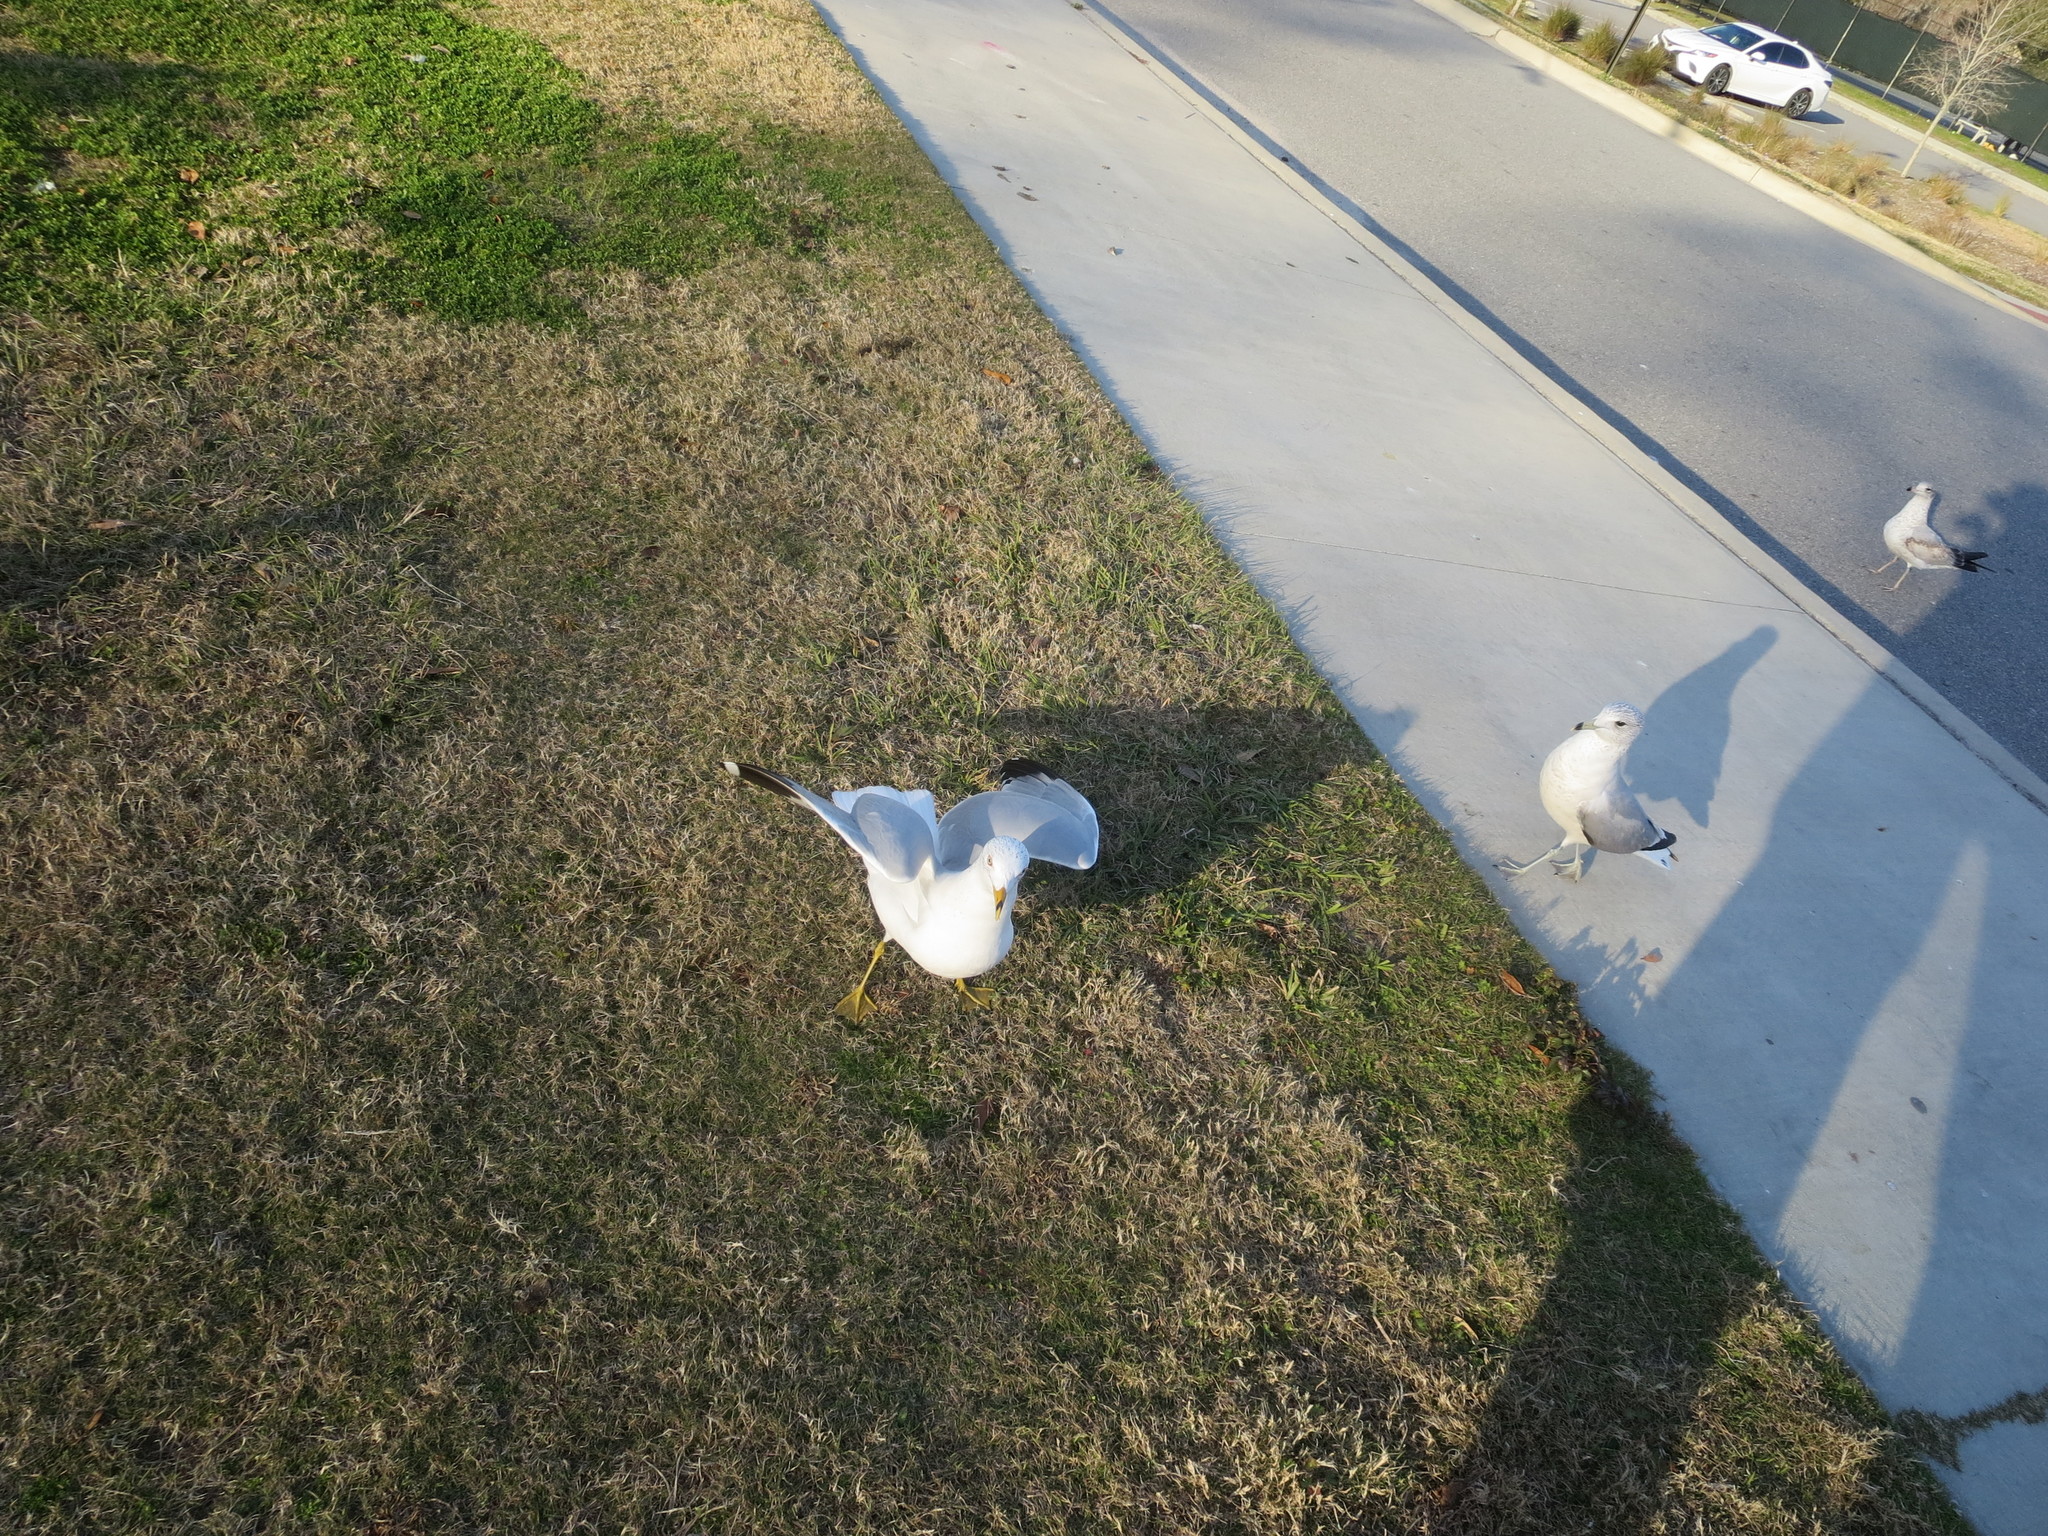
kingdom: Animalia
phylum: Chordata
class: Aves
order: Charadriiformes
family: Laridae
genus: Larus
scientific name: Larus delawarensis
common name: Ring-billed gull
